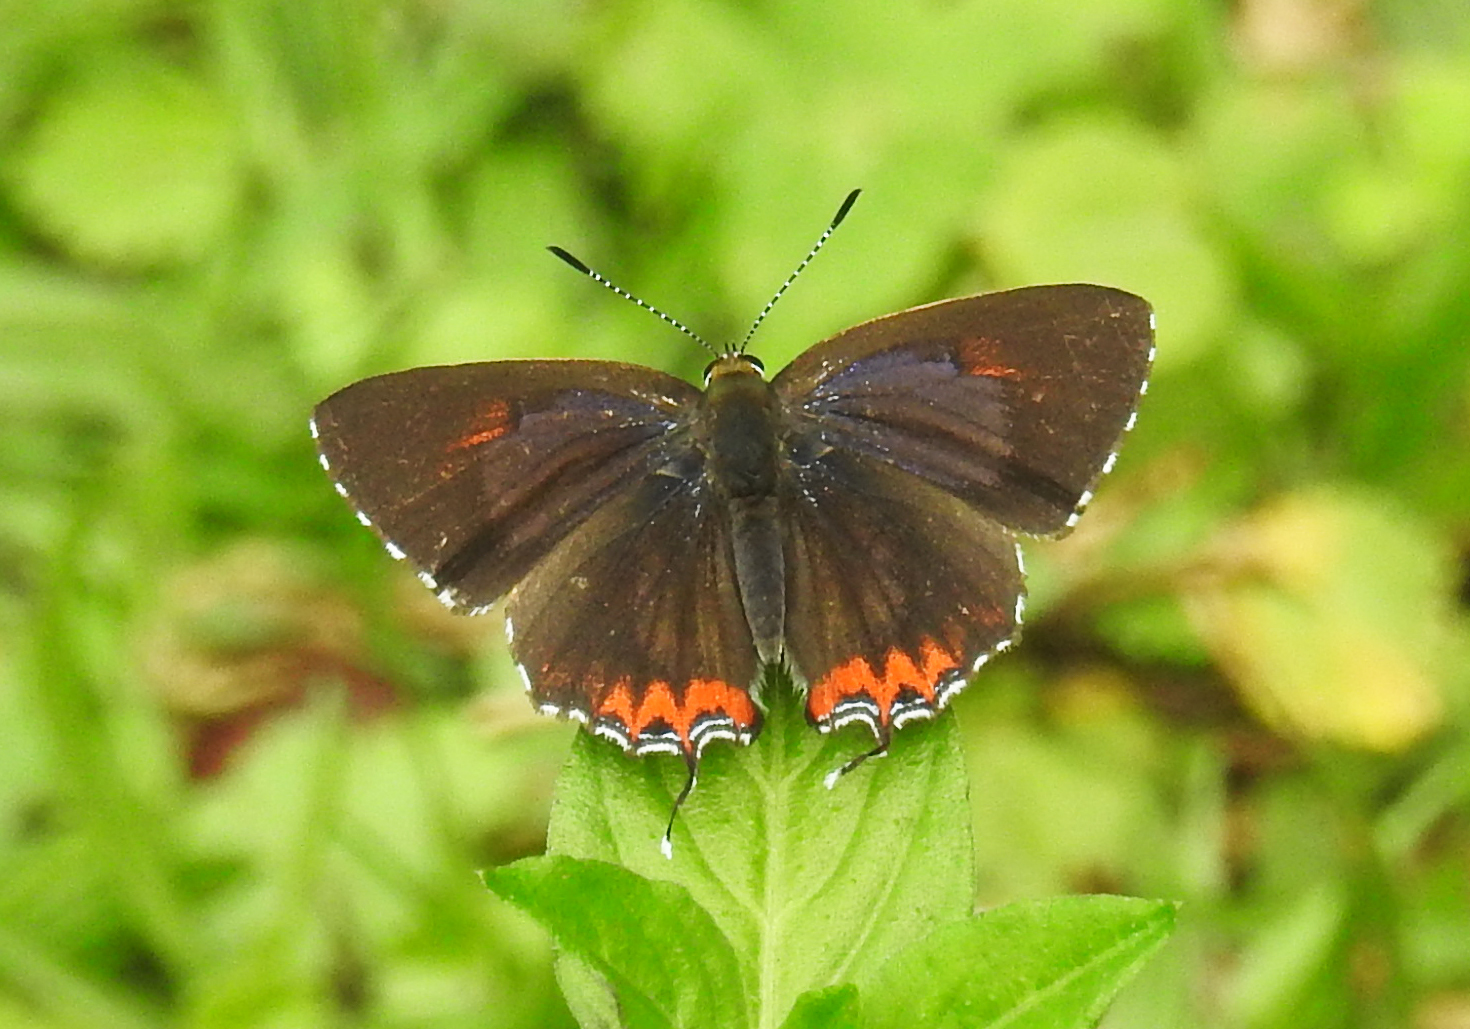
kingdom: Animalia
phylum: Arthropoda
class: Insecta
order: Lepidoptera
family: Lycaenidae
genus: Heliophorus
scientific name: Heliophorus epicles
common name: Purple sapphire
